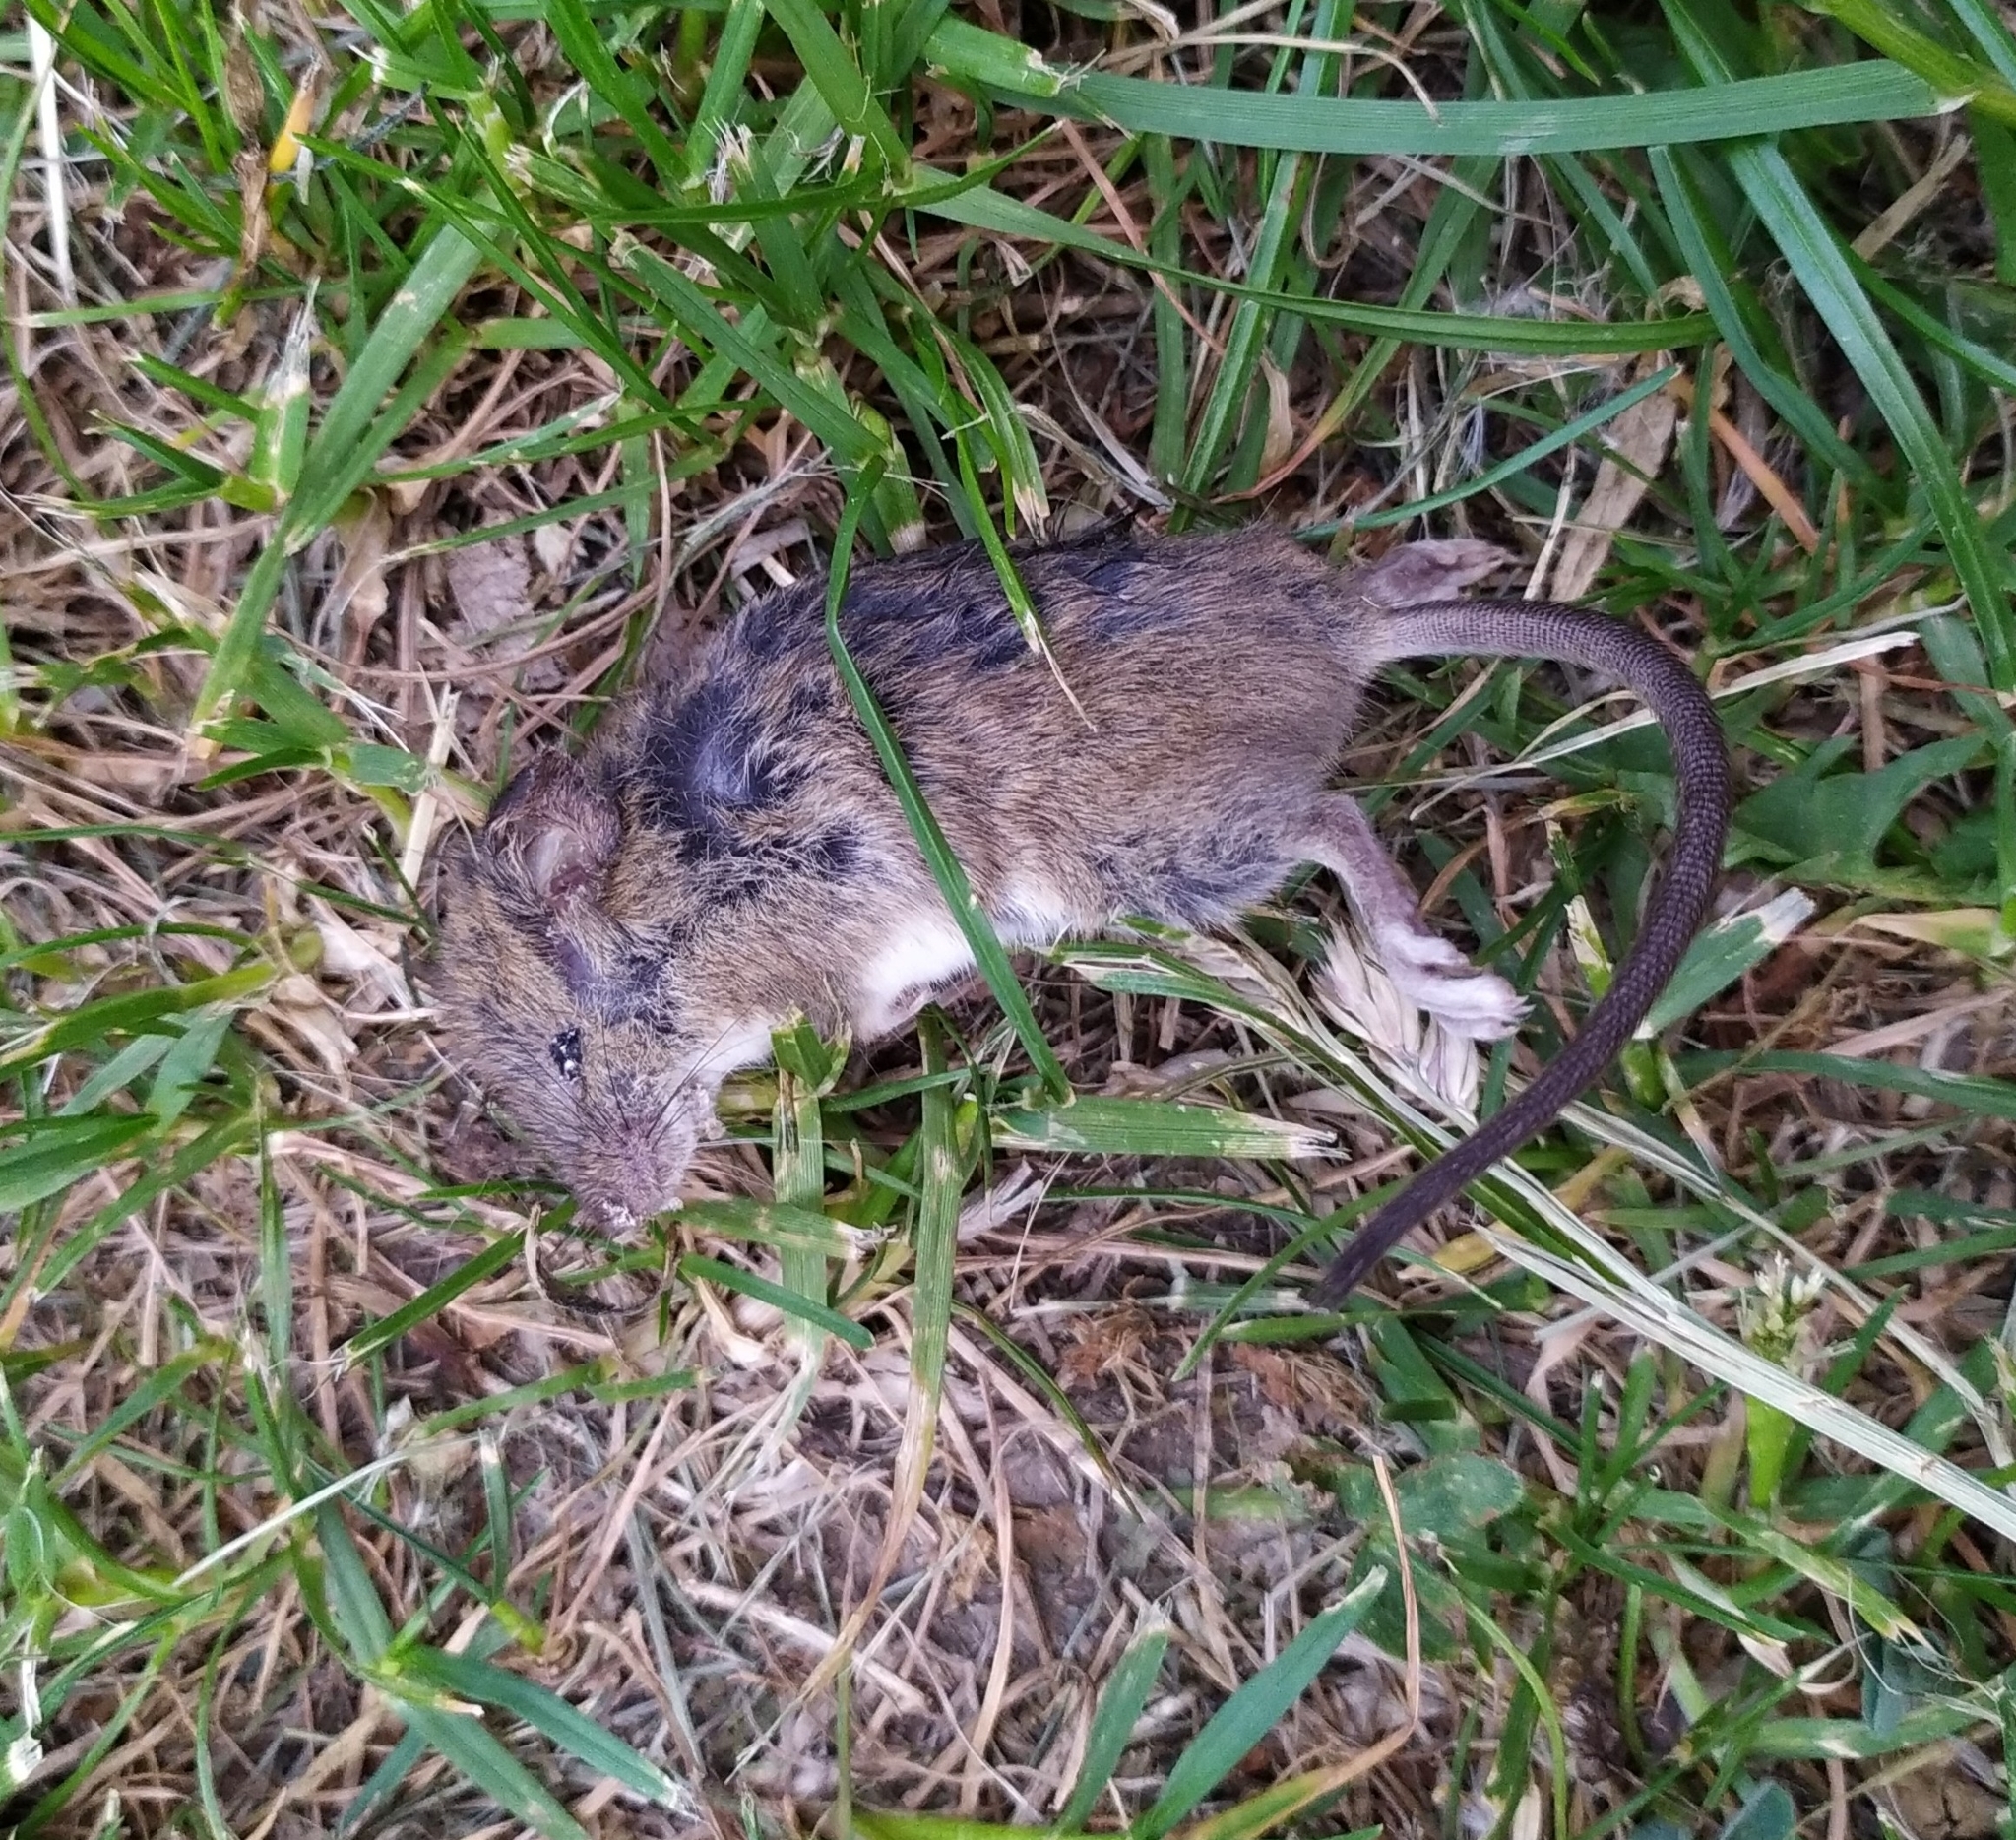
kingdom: Animalia
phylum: Chordata
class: Mammalia
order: Rodentia
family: Muridae
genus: Mus
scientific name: Mus musculus
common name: House mouse
